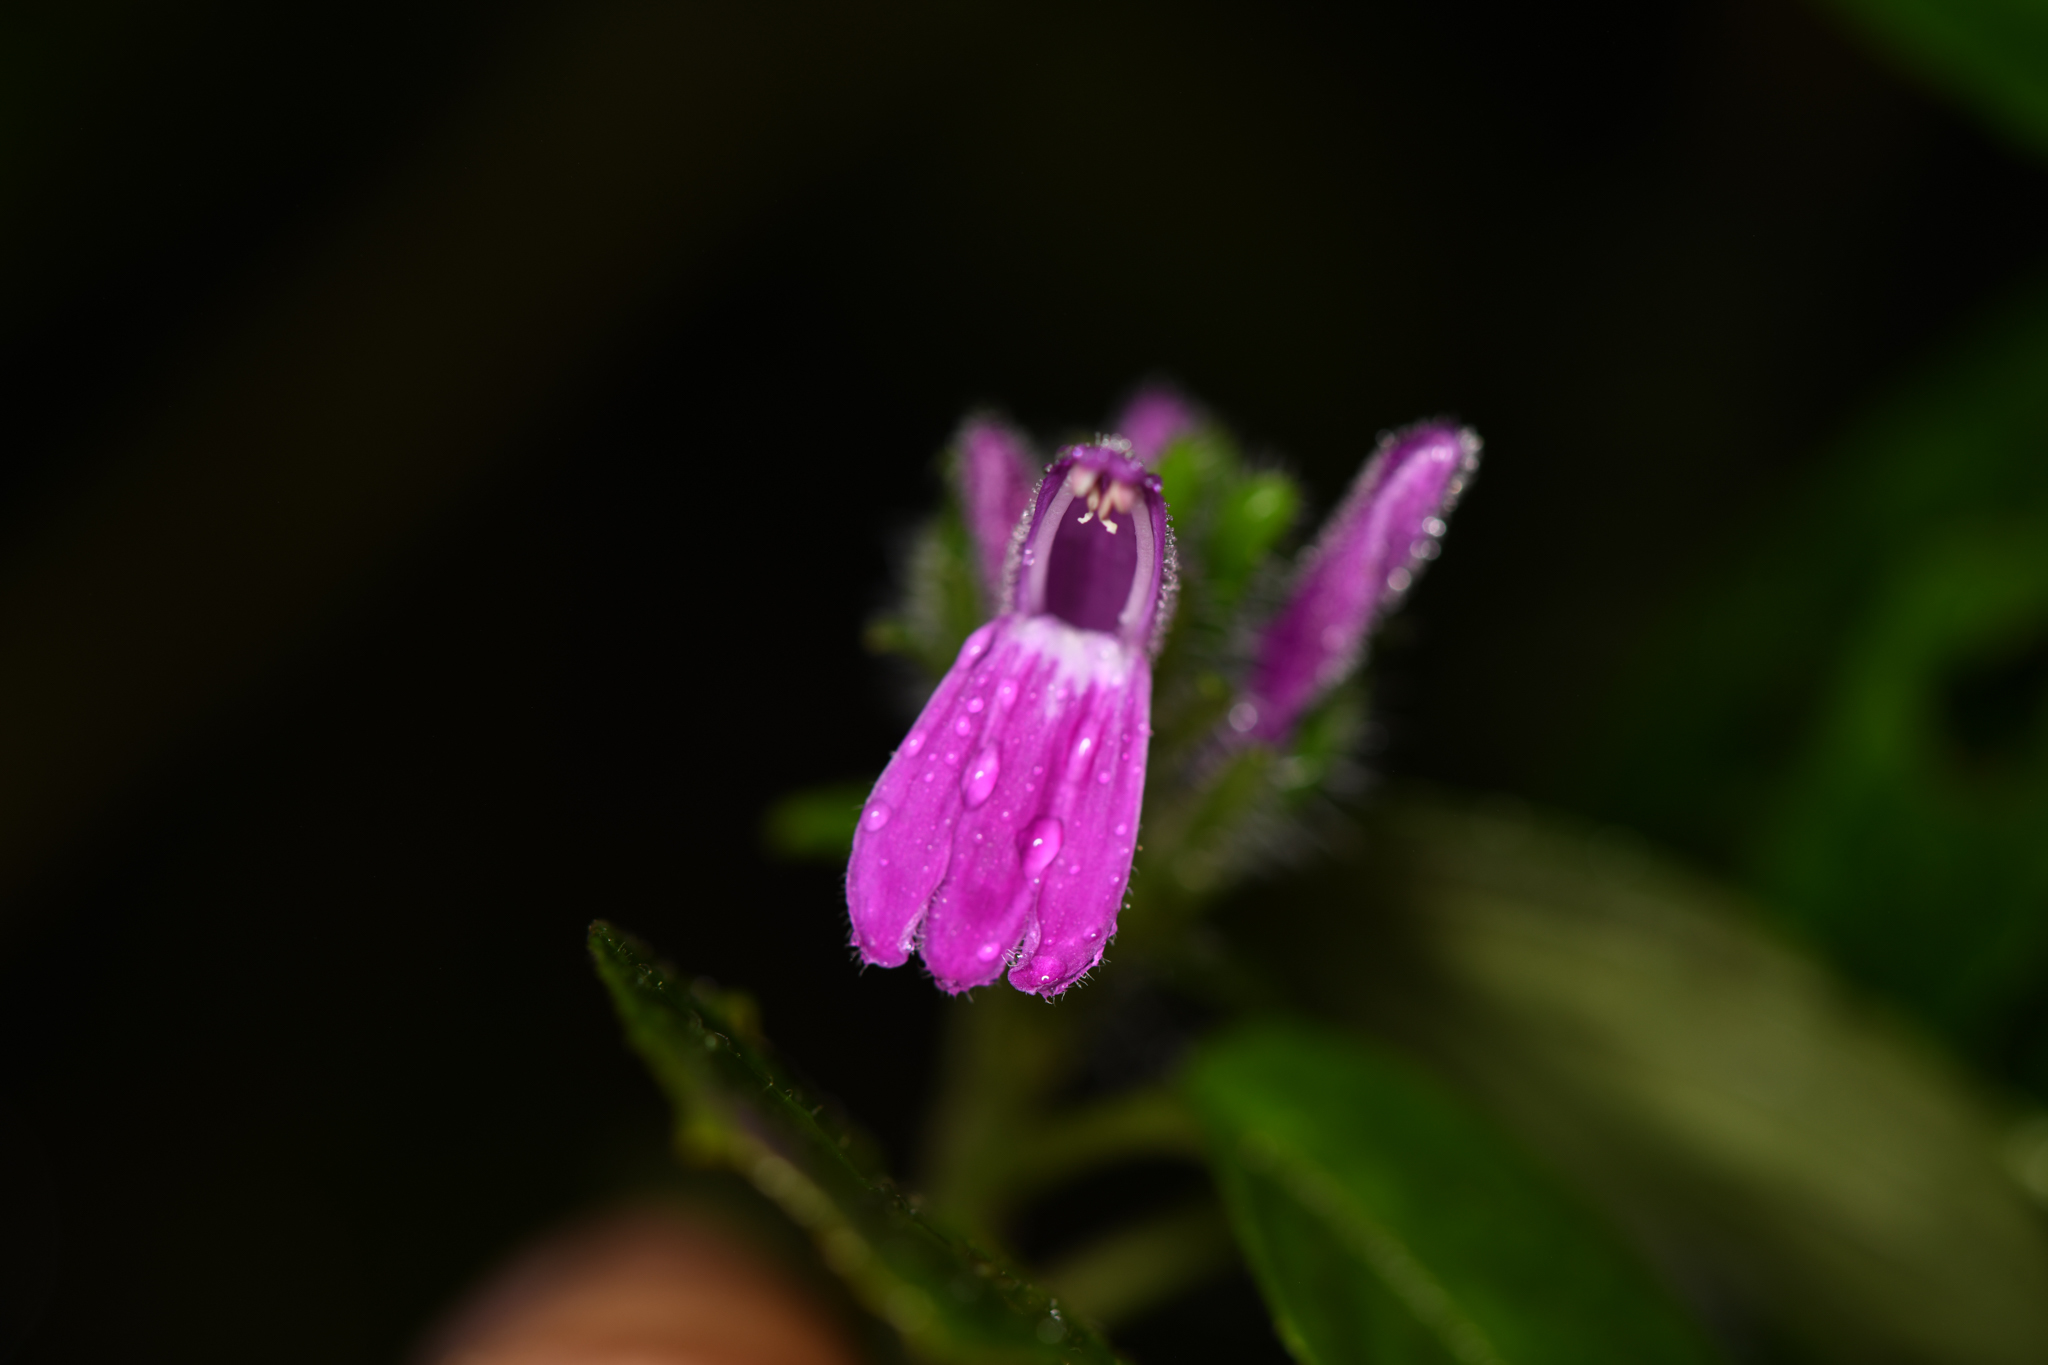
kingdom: Plantae
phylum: Tracheophyta
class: Magnoliopsida
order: Lamiales
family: Acanthaceae
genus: Justicia
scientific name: Justicia brenesii
